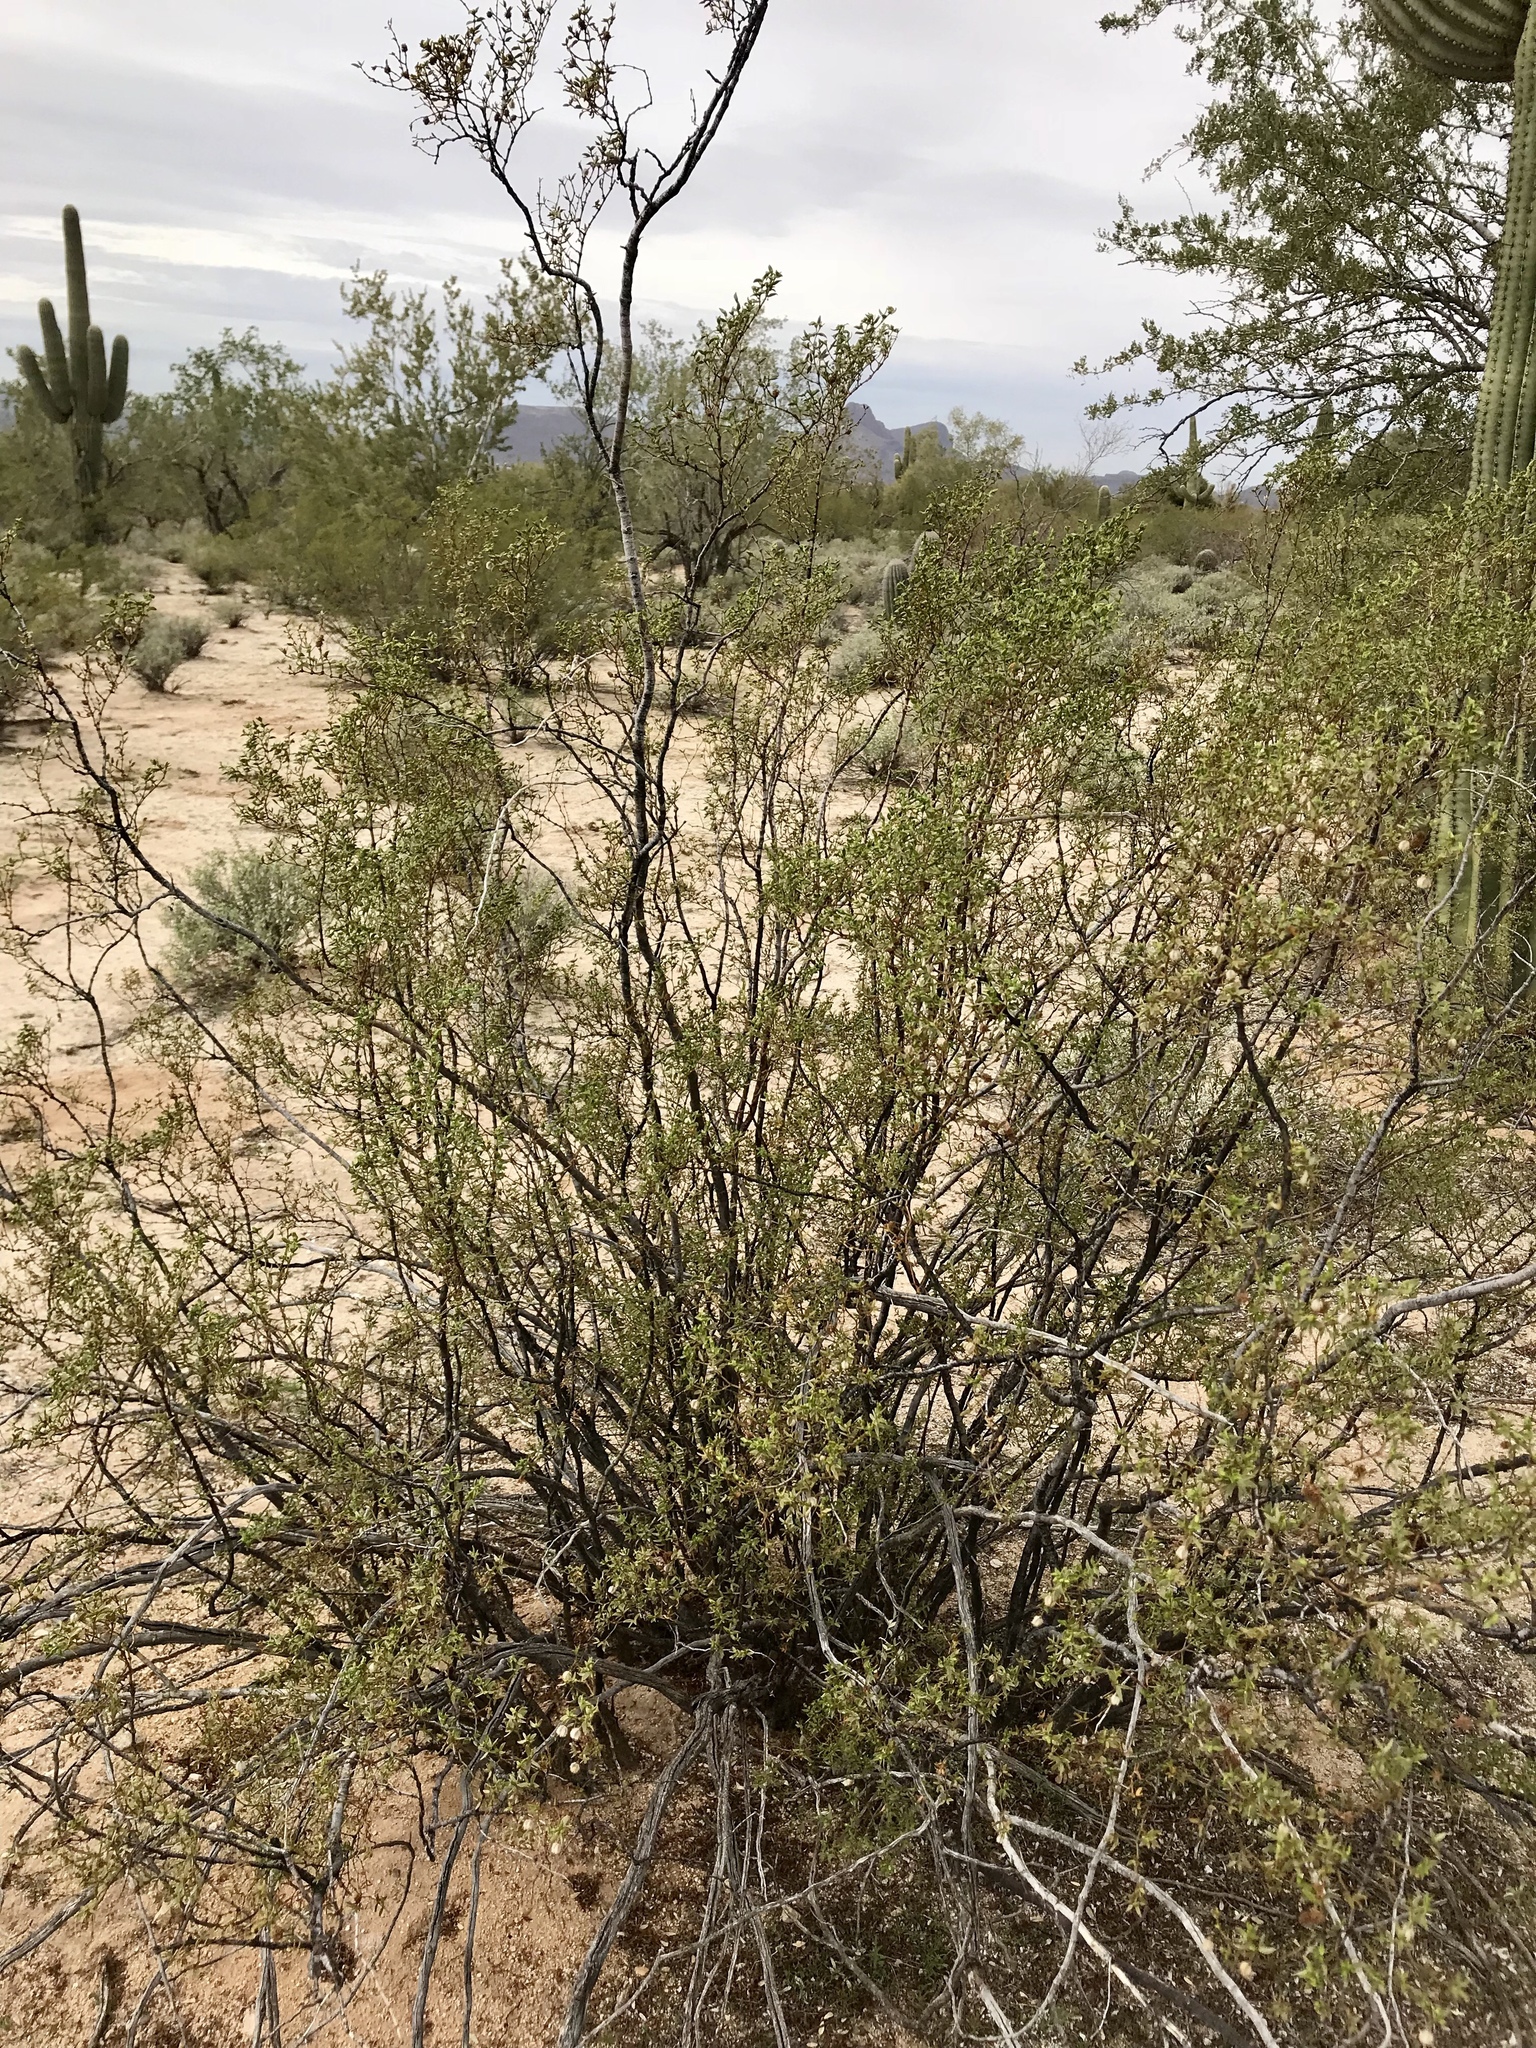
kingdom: Plantae
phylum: Tracheophyta
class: Magnoliopsida
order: Zygophyllales
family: Zygophyllaceae
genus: Larrea
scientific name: Larrea tridentata
